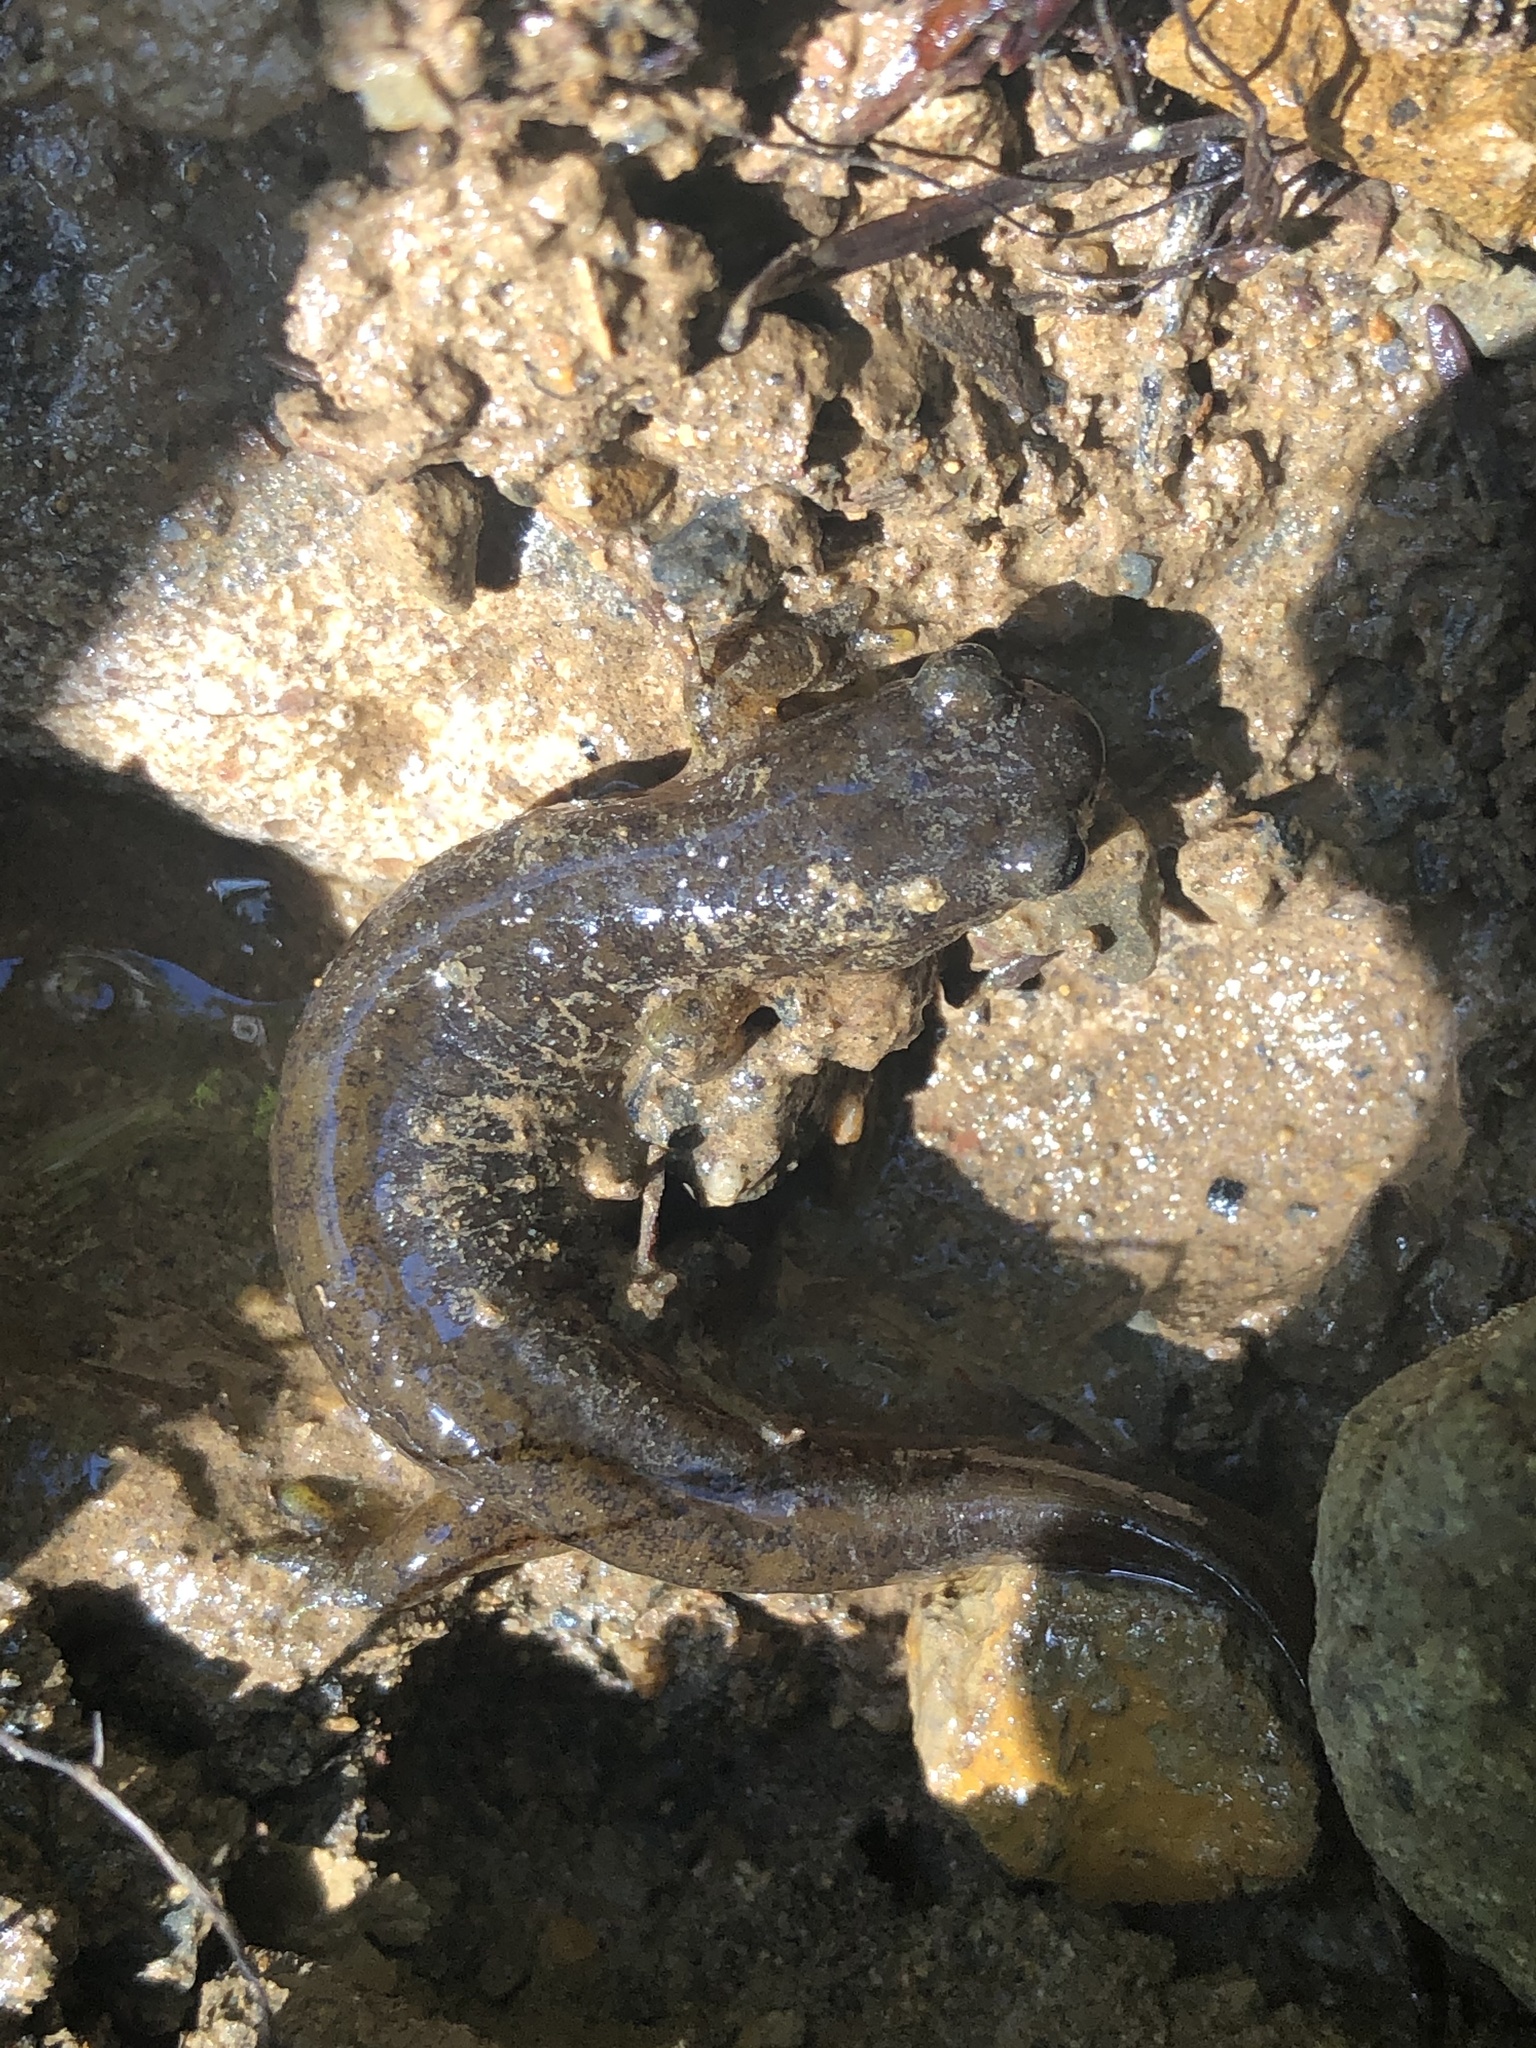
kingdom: Animalia
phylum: Chordata
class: Amphibia
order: Caudata
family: Rhyacotritonidae
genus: Rhyacotriton
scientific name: Rhyacotriton variegatus
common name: Southern torrent salamander
